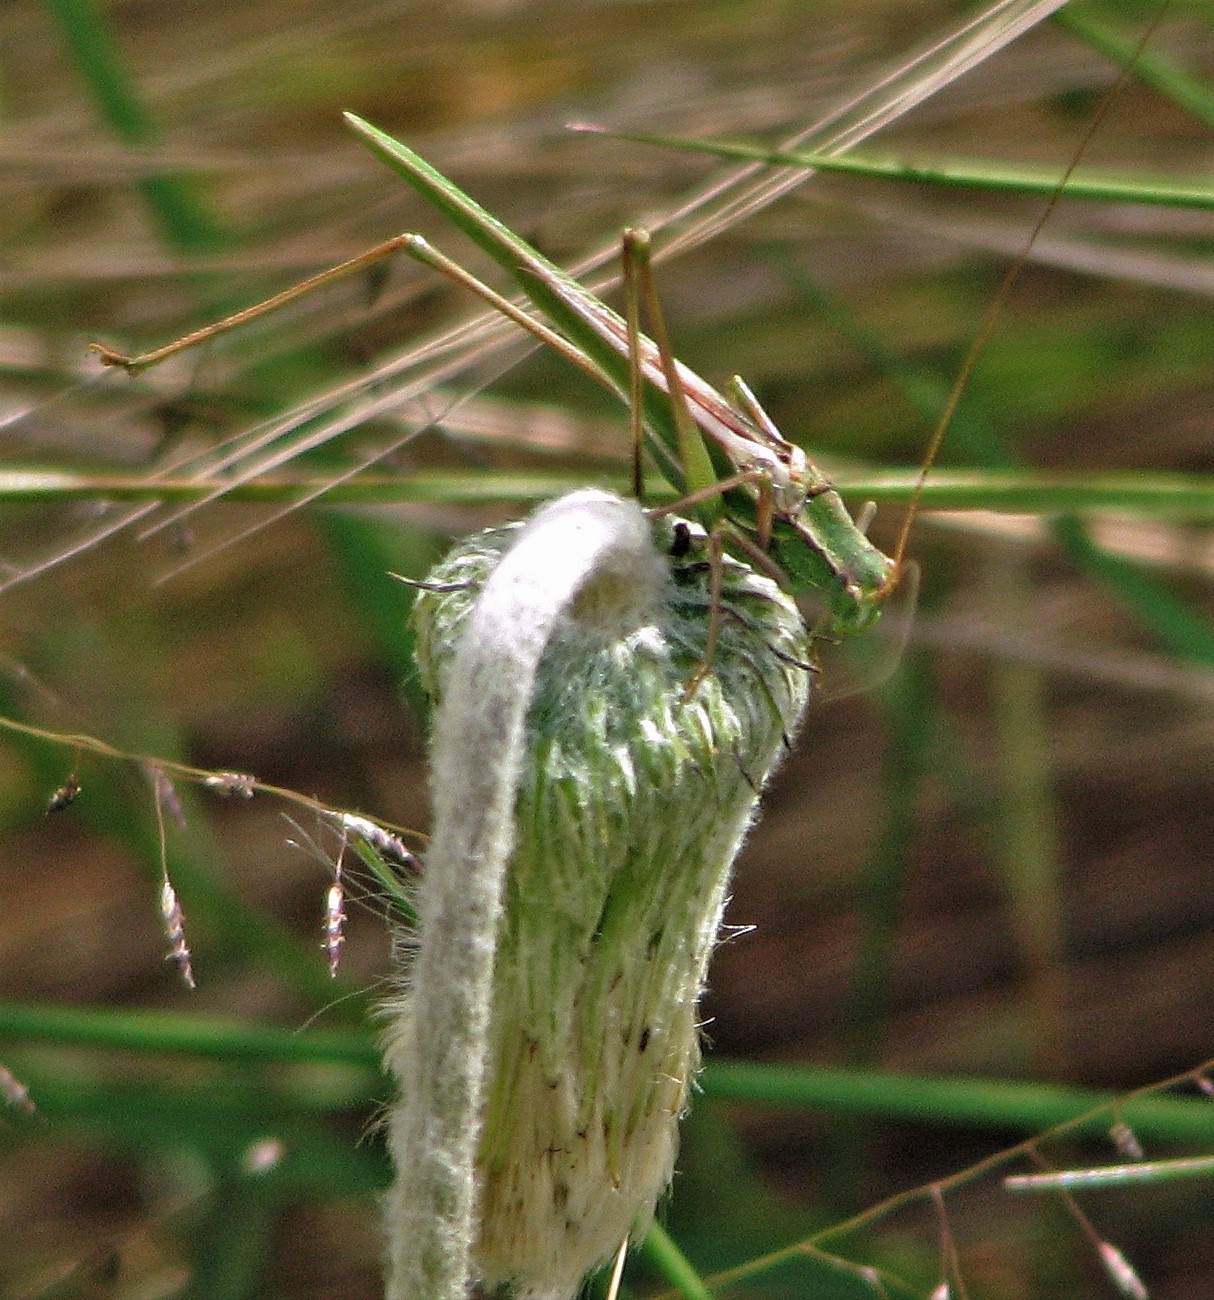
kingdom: Animalia
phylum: Arthropoda
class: Insecta
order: Orthoptera
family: Tettigoniidae
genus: Burgilis
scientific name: Burgilis curta
